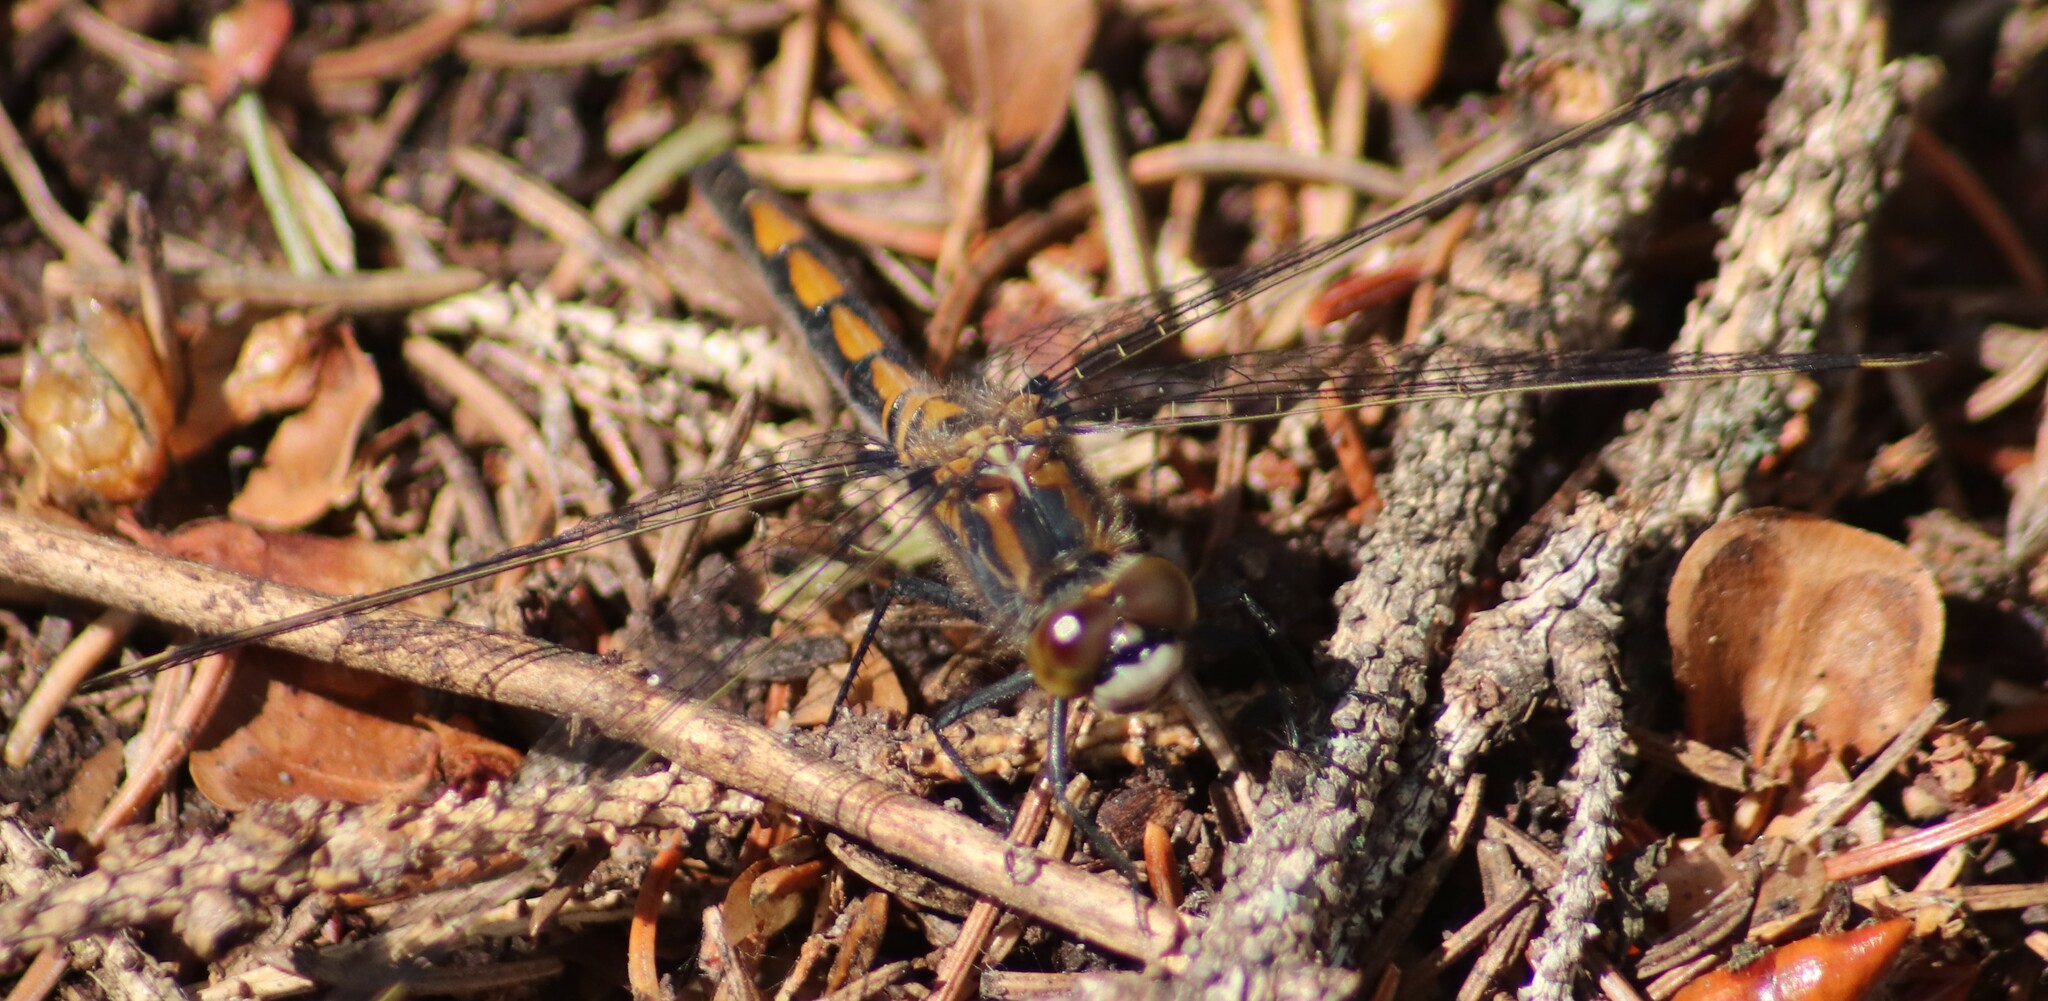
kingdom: Animalia
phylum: Arthropoda
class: Insecta
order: Odonata
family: Libellulidae
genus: Leucorrhinia
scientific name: Leucorrhinia borealis
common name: Boreal whiteface
